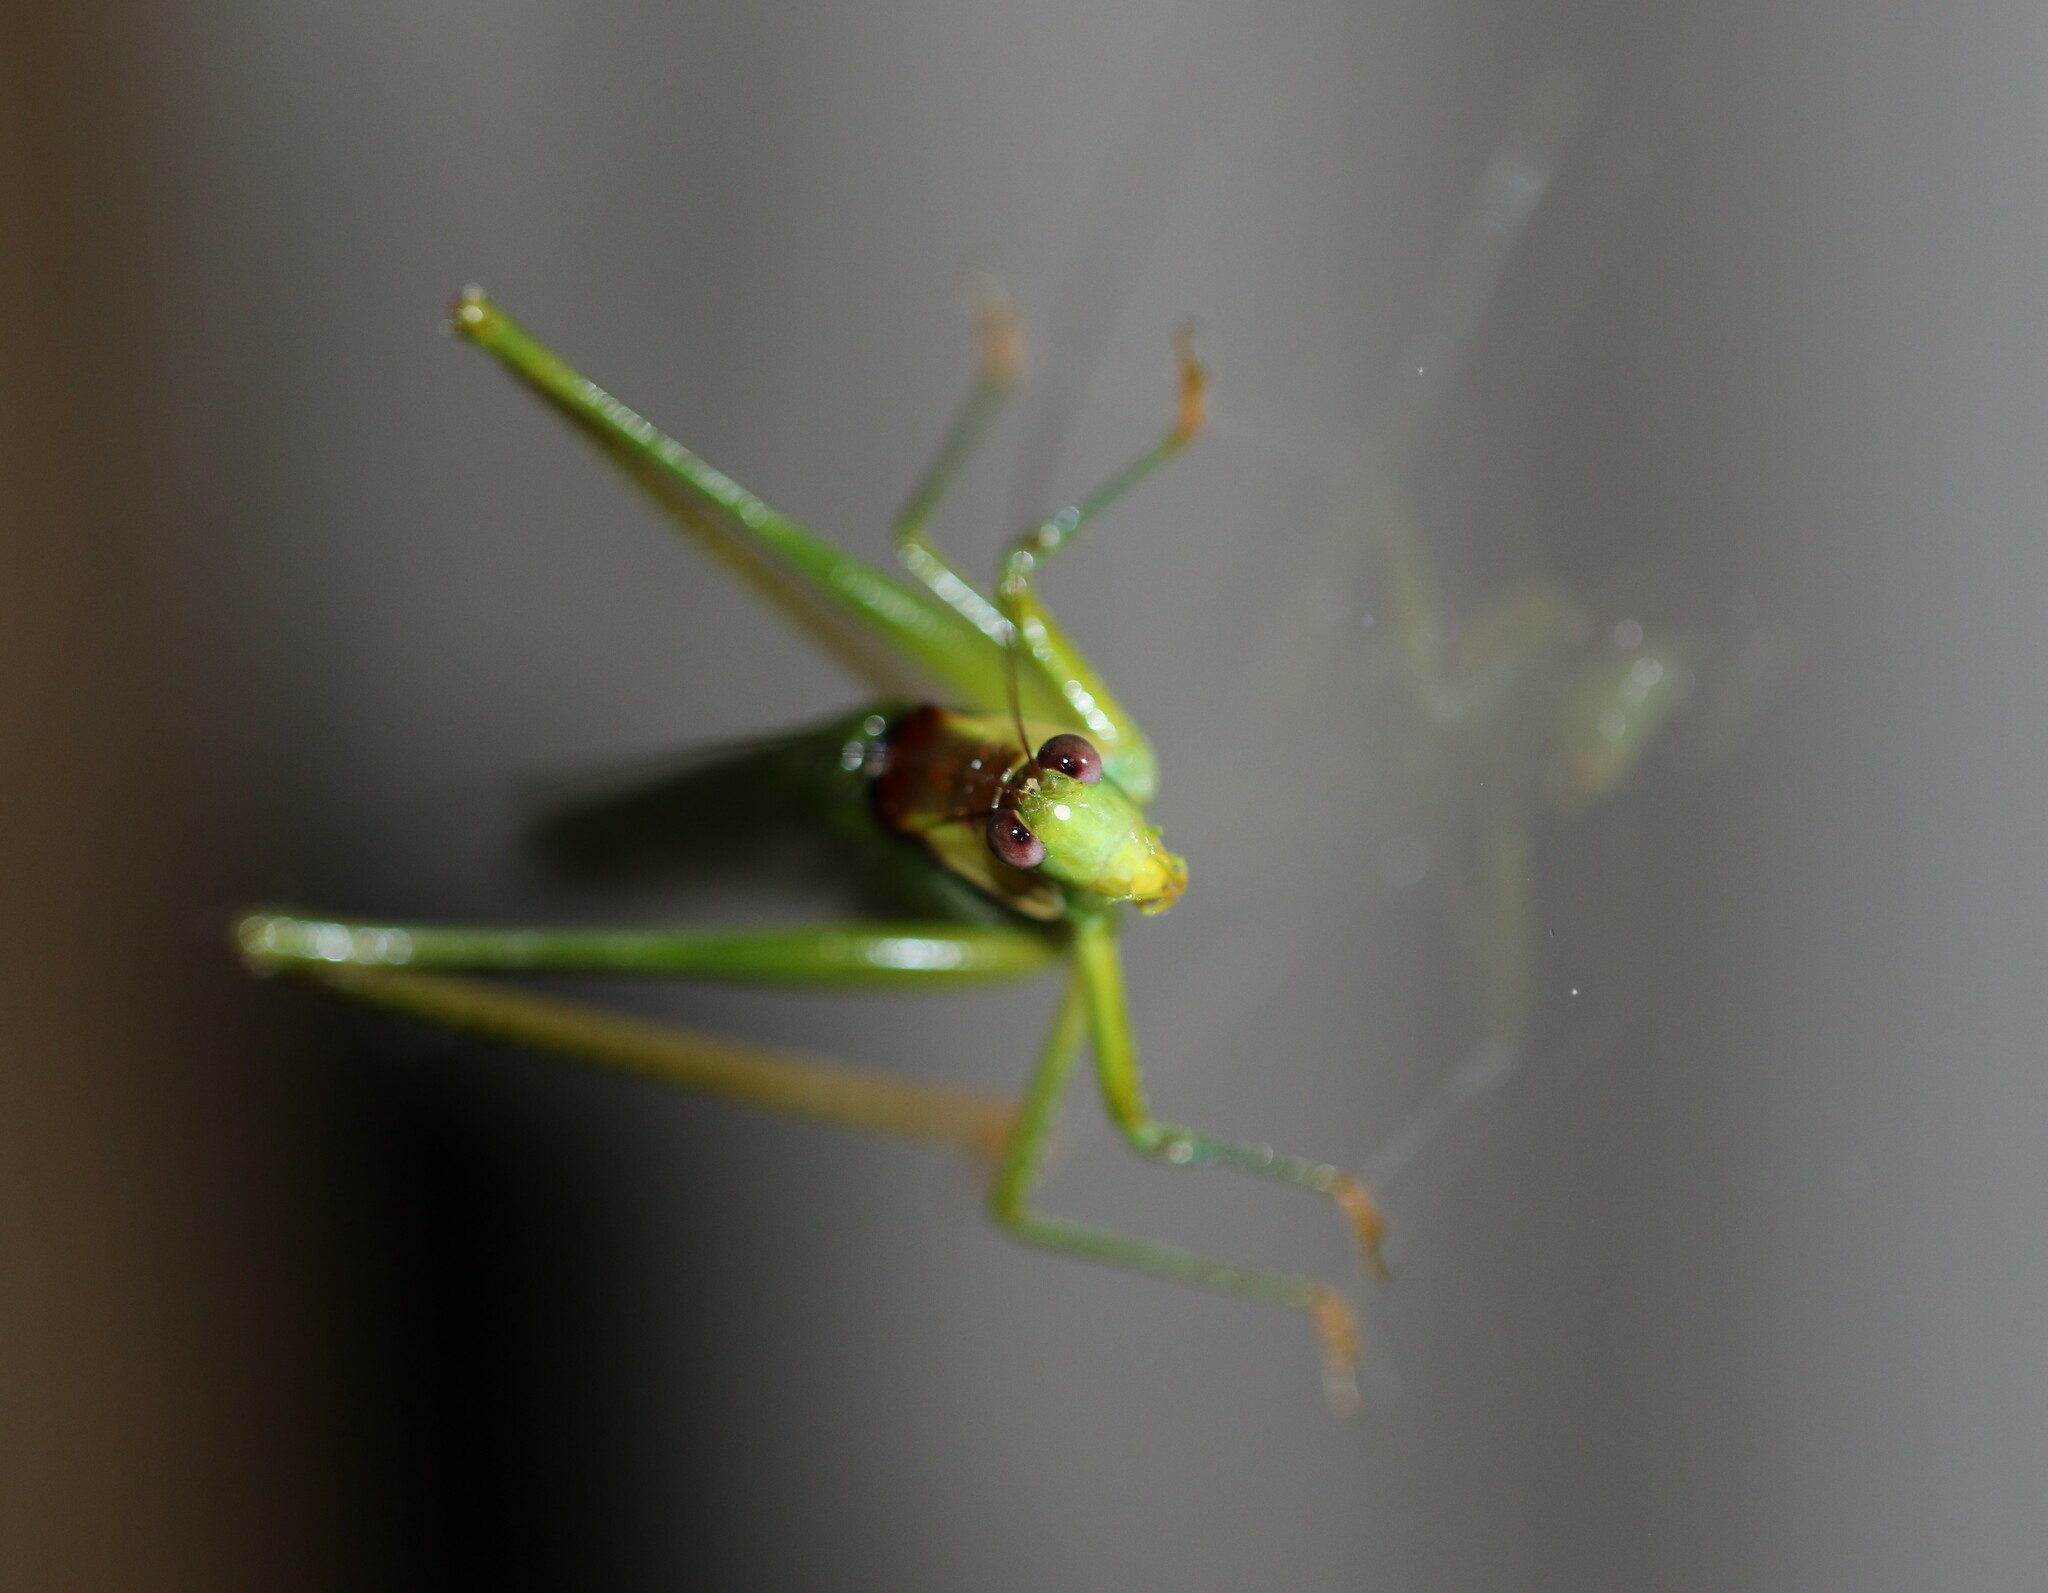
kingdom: Animalia
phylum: Arthropoda
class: Insecta
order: Orthoptera
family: Tettigoniidae
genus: Euceraia
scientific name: Euceraia atryx
